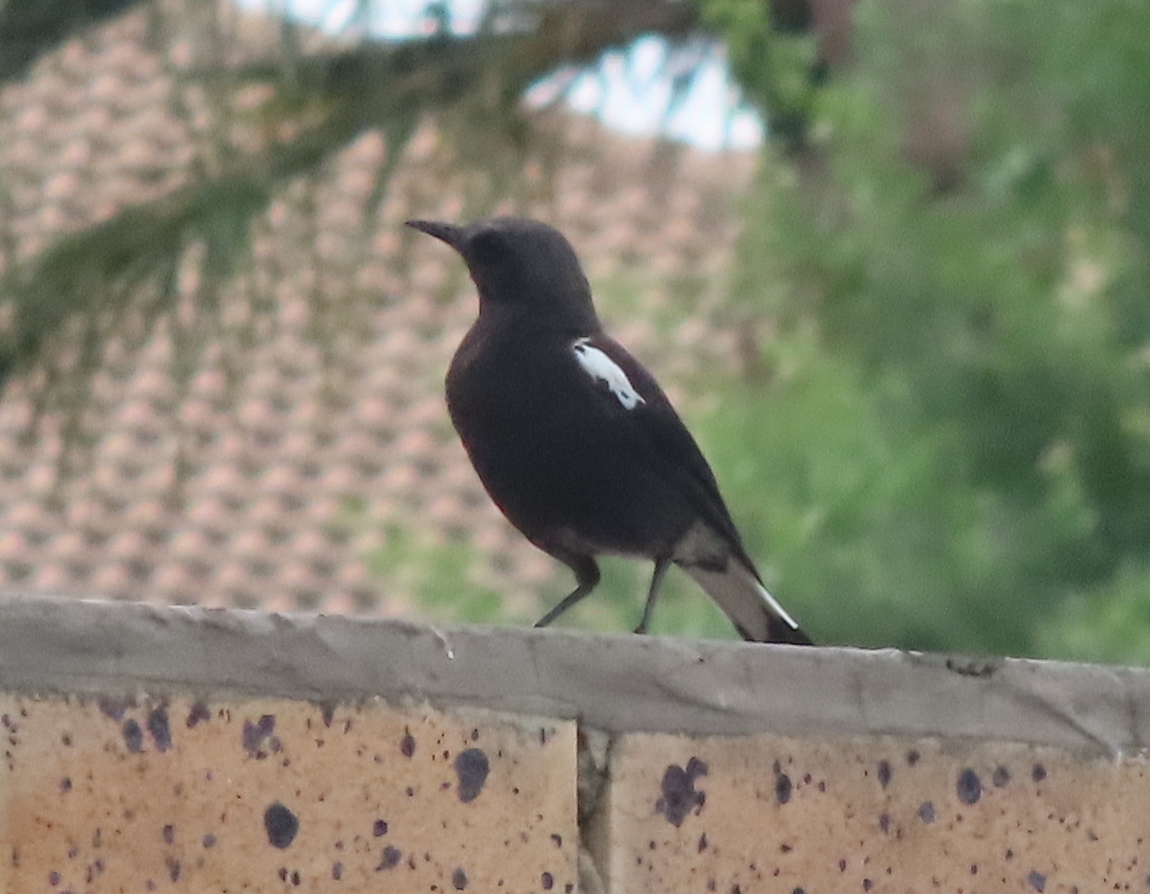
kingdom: Animalia
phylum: Chordata
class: Aves
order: Passeriformes
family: Muscicapidae
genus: Oenanthe
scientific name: Oenanthe monticola
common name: Mountain wheatear
